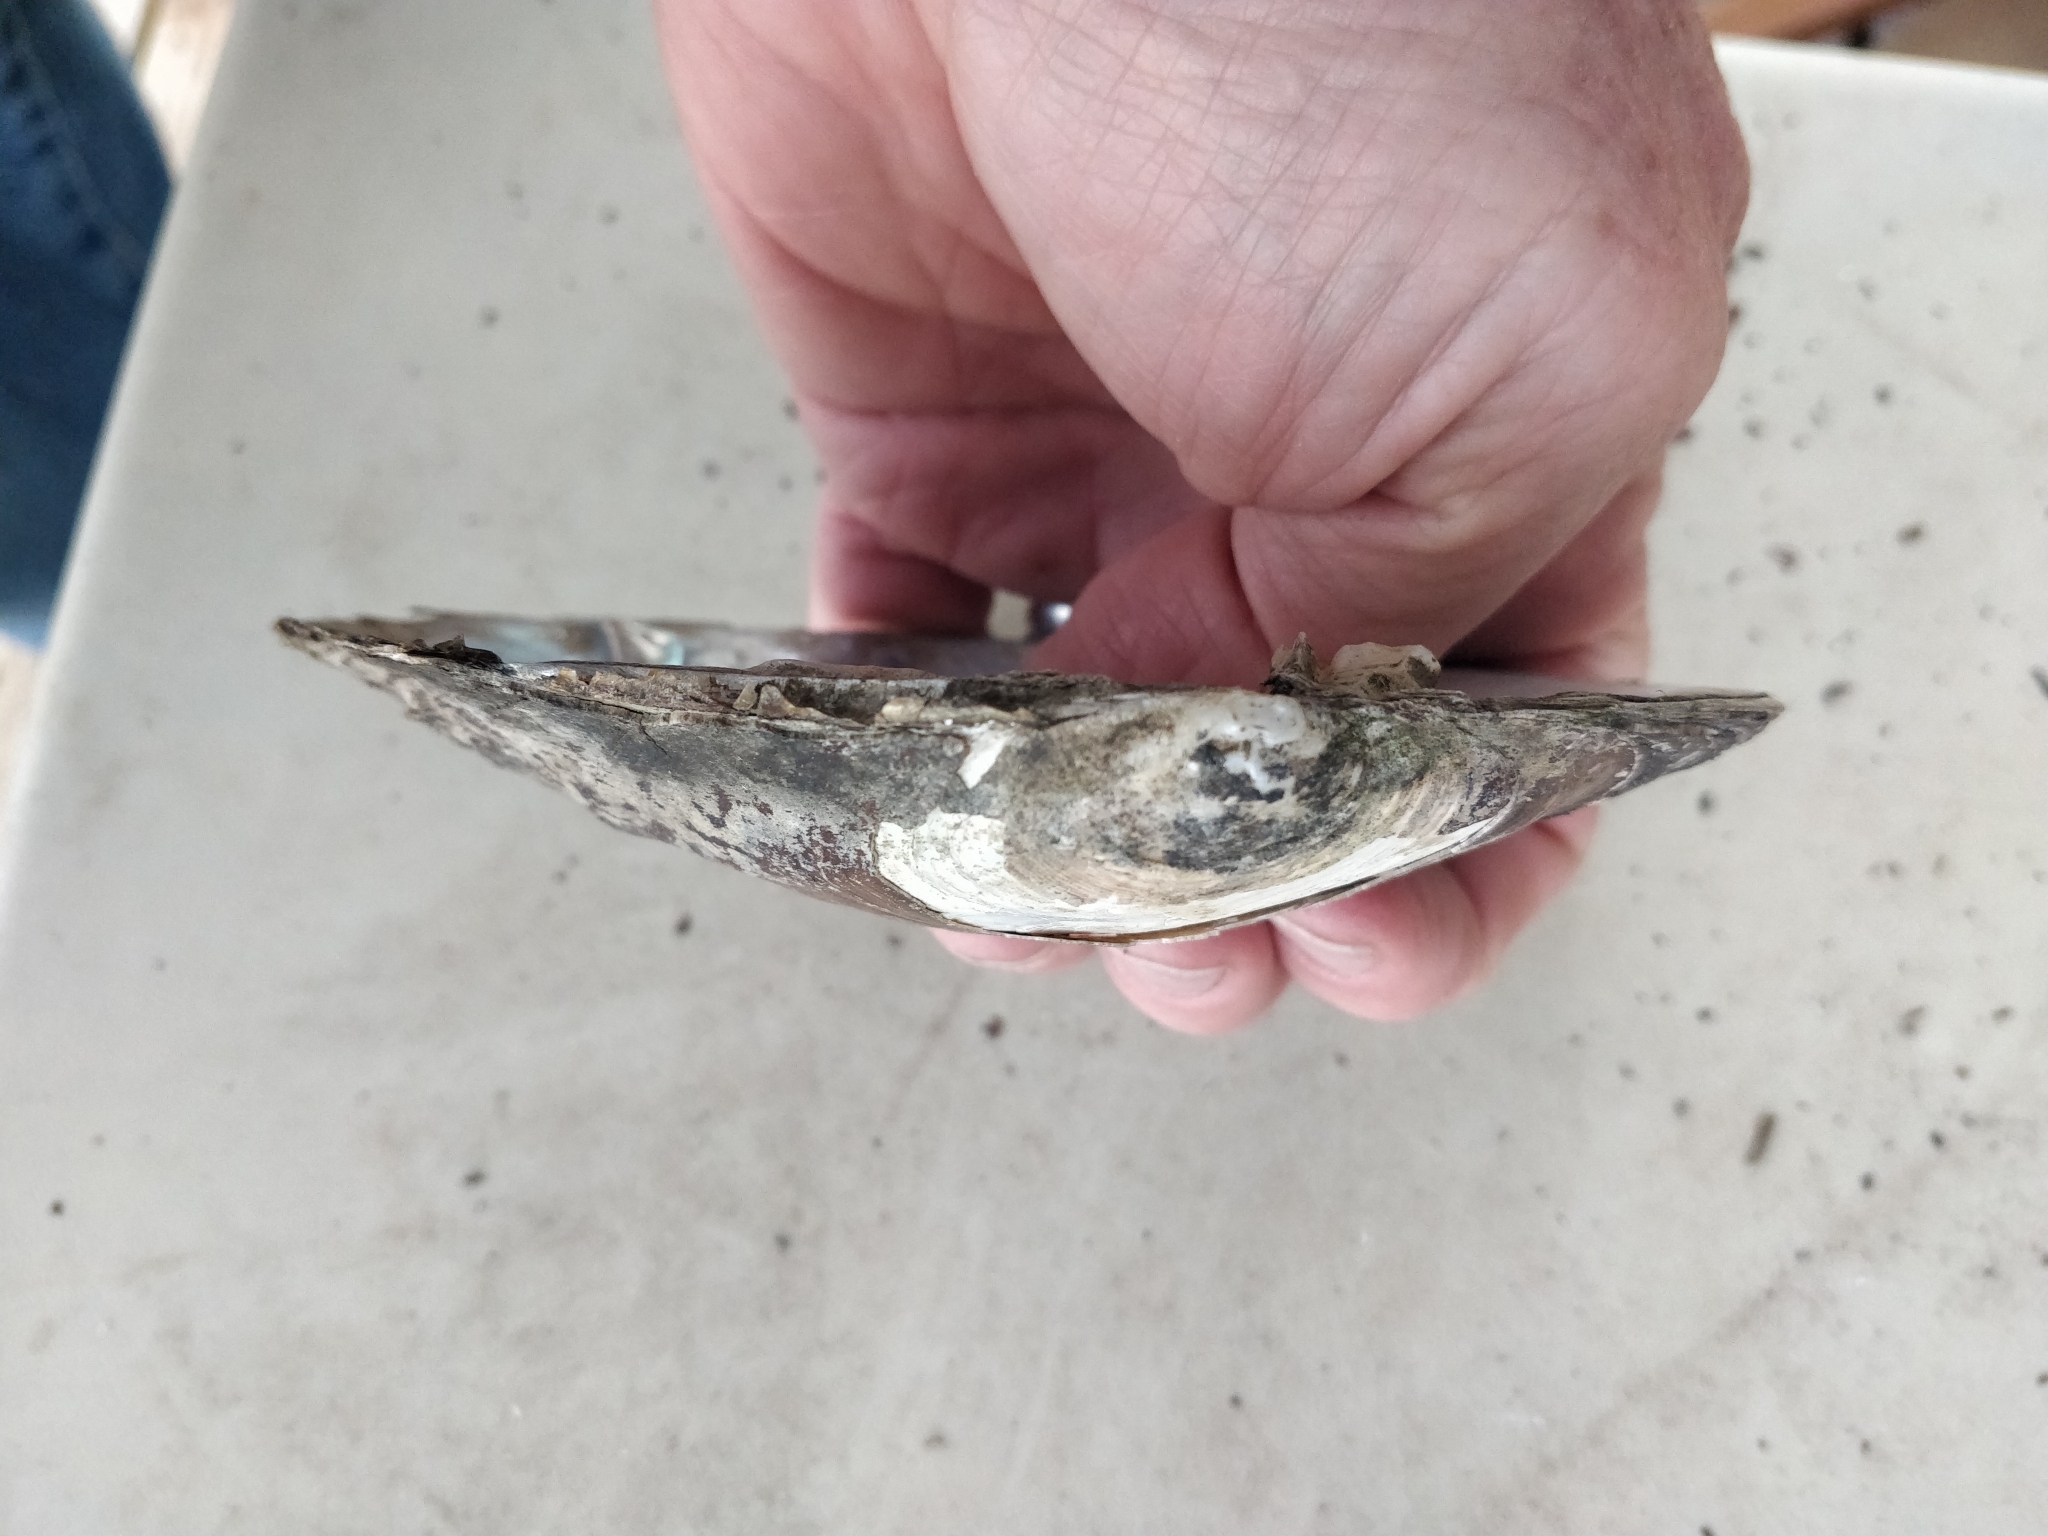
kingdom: Animalia
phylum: Mollusca
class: Bivalvia
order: Unionida
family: Unionidae
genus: Lasmigona
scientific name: Lasmigona complanata
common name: White heelsplitter
